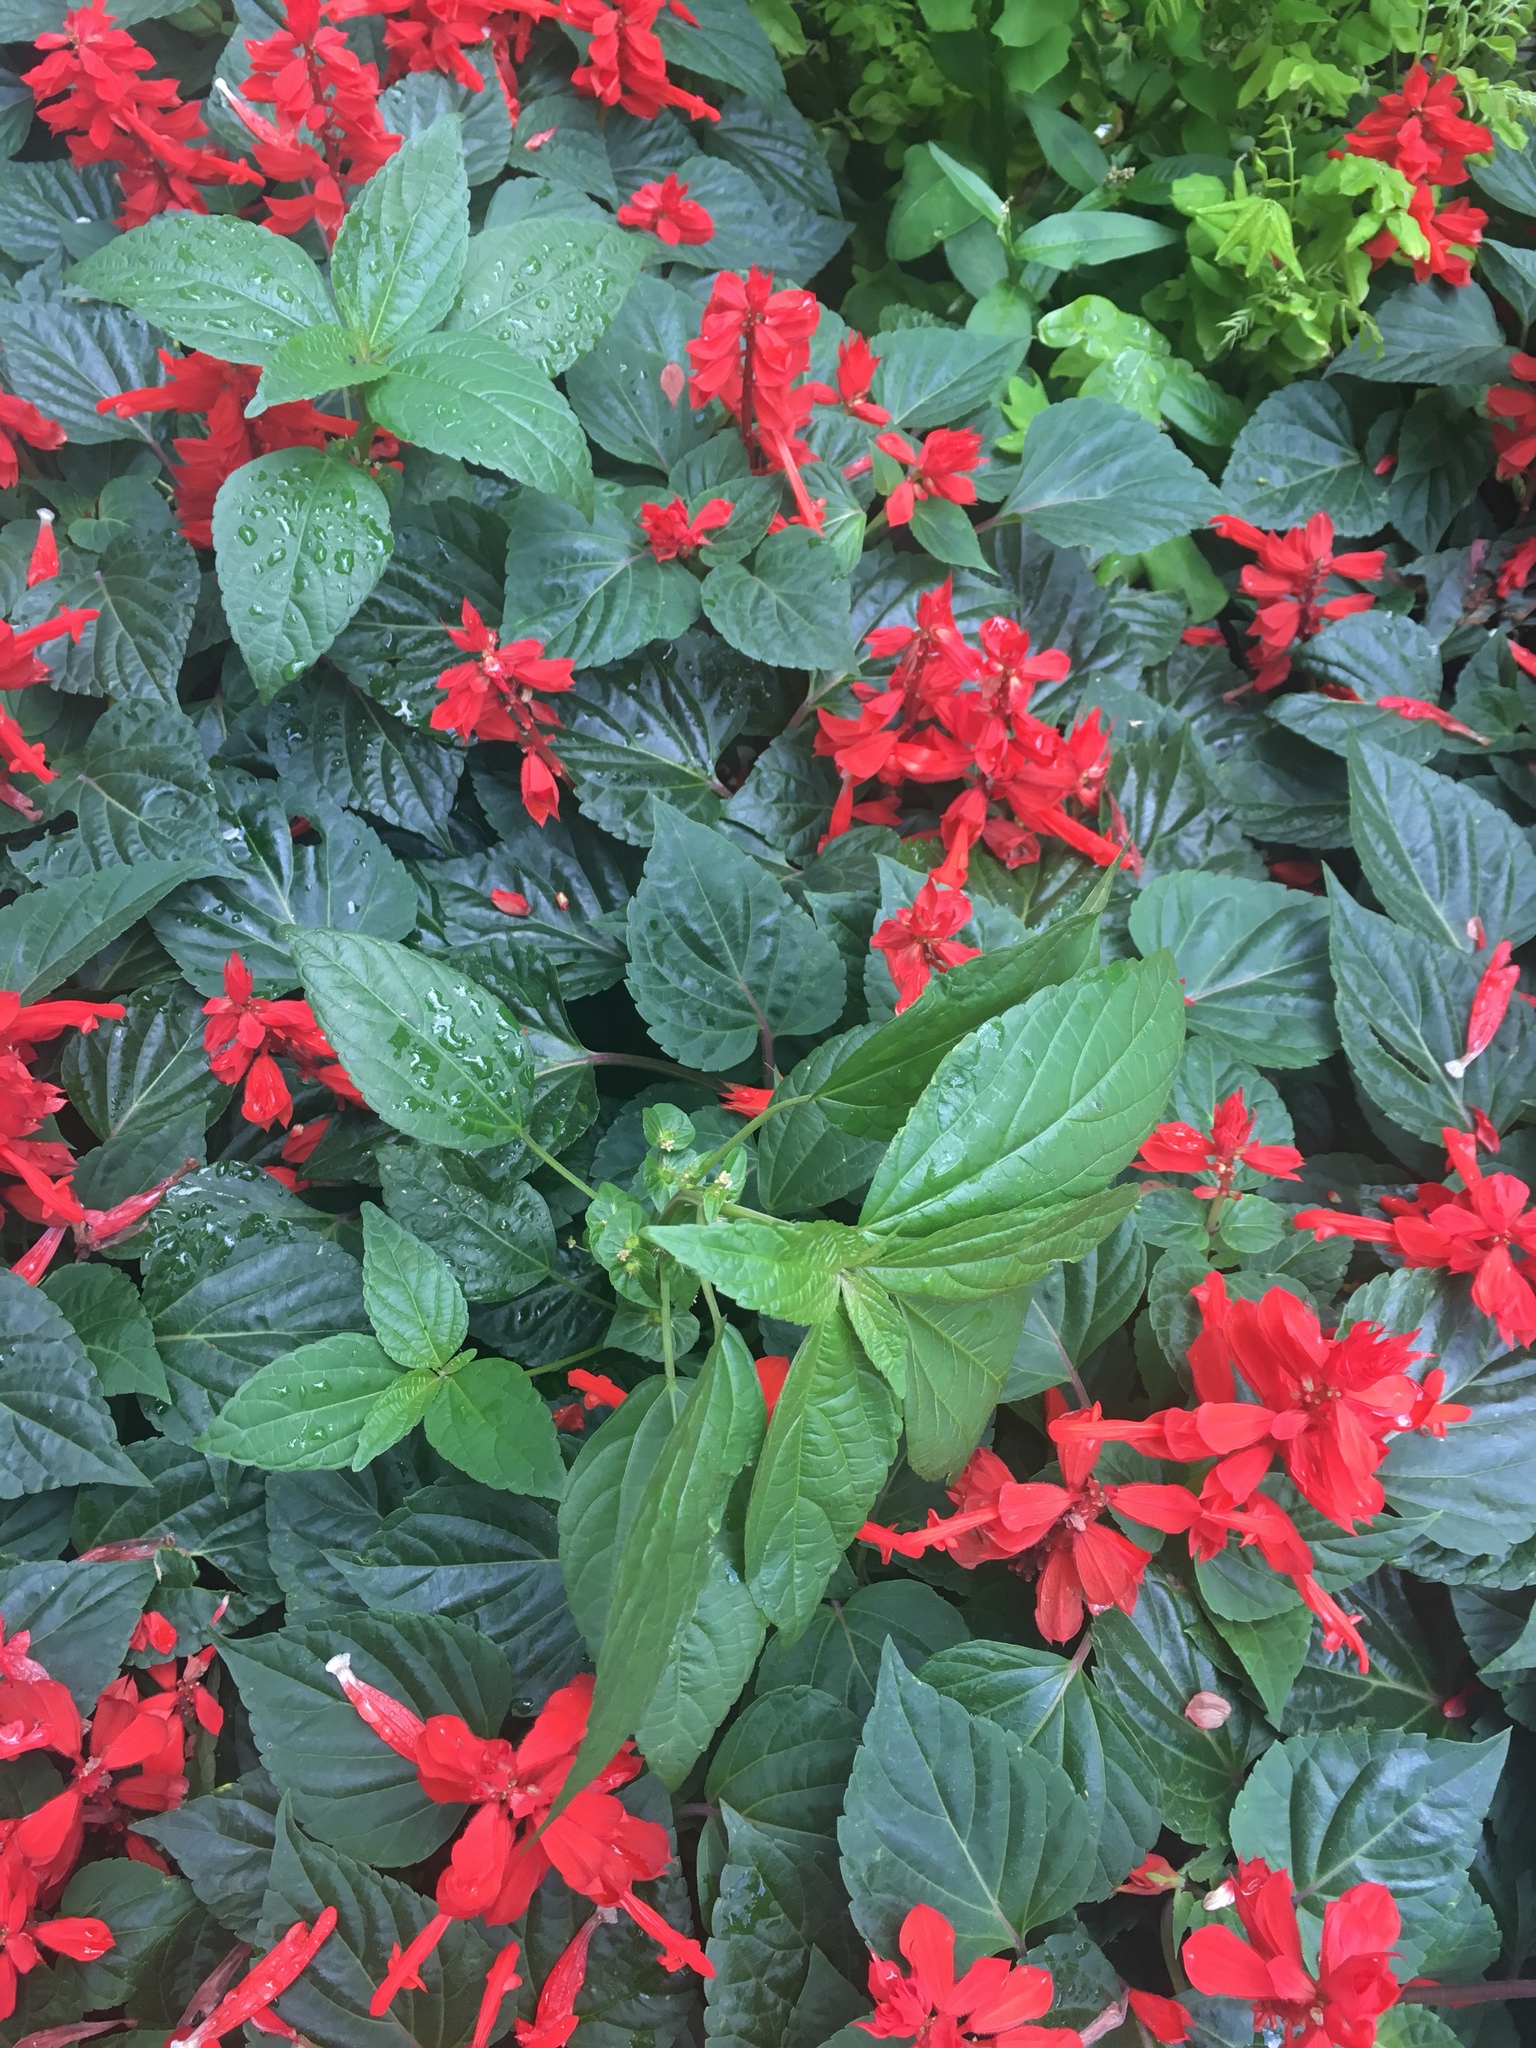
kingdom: Plantae
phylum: Tracheophyta
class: Magnoliopsida
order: Malpighiales
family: Euphorbiaceae
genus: Acalypha
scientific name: Acalypha australis
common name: Asian copperleaf
